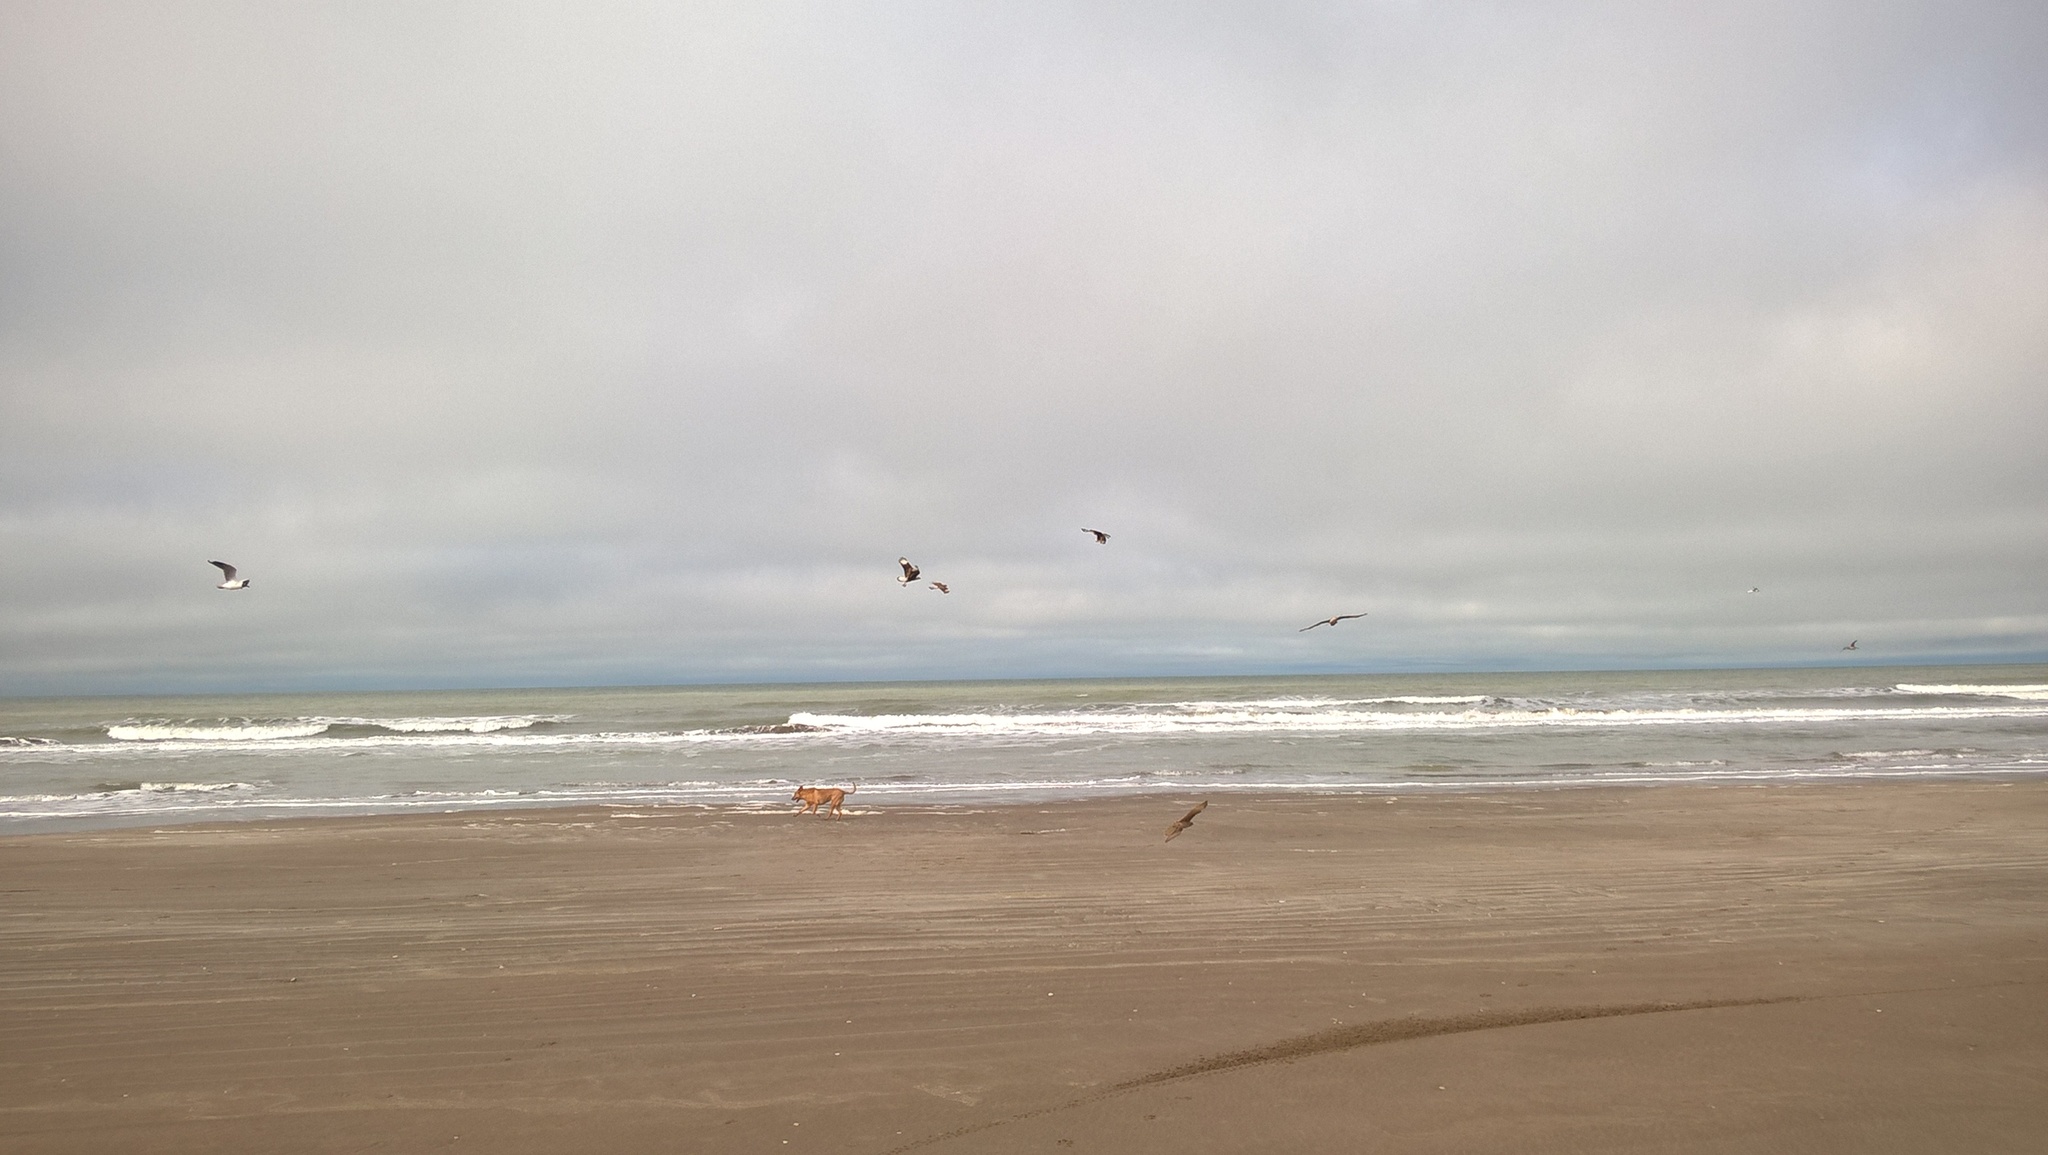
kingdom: Animalia
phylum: Chordata
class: Aves
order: Falconiformes
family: Falconidae
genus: Caracara
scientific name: Caracara plancus
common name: Southern caracara
